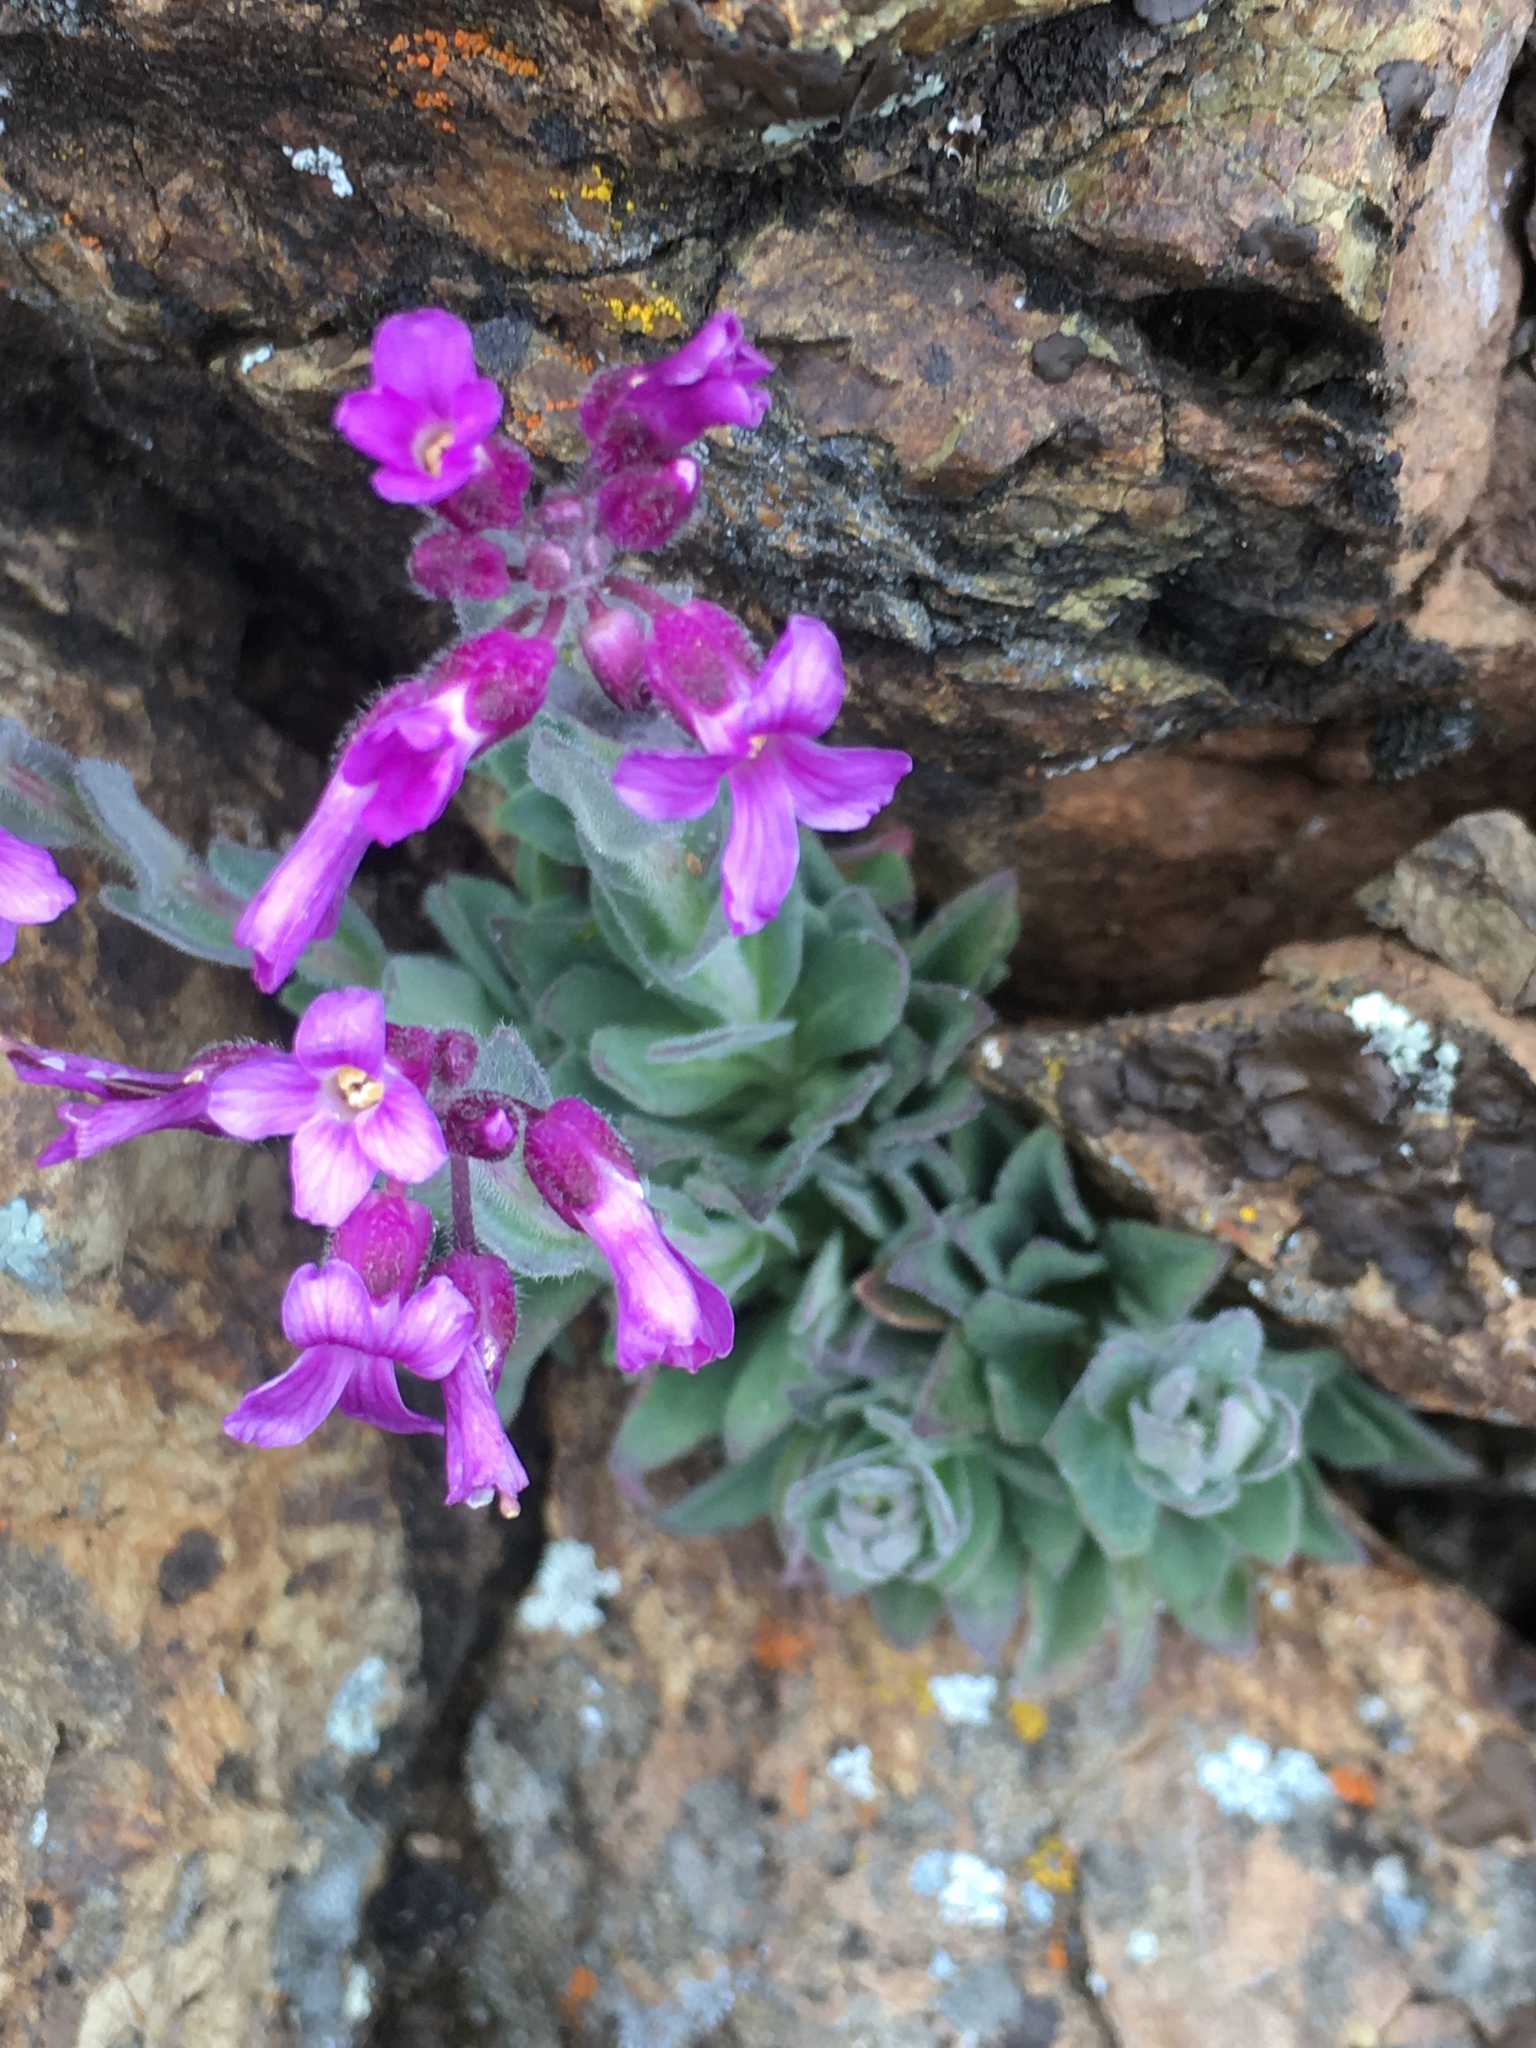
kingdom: Plantae
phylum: Tracheophyta
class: Magnoliopsida
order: Brassicales
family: Brassicaceae
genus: Boechera
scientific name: Boechera breweri
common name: Brewer's rockcress
